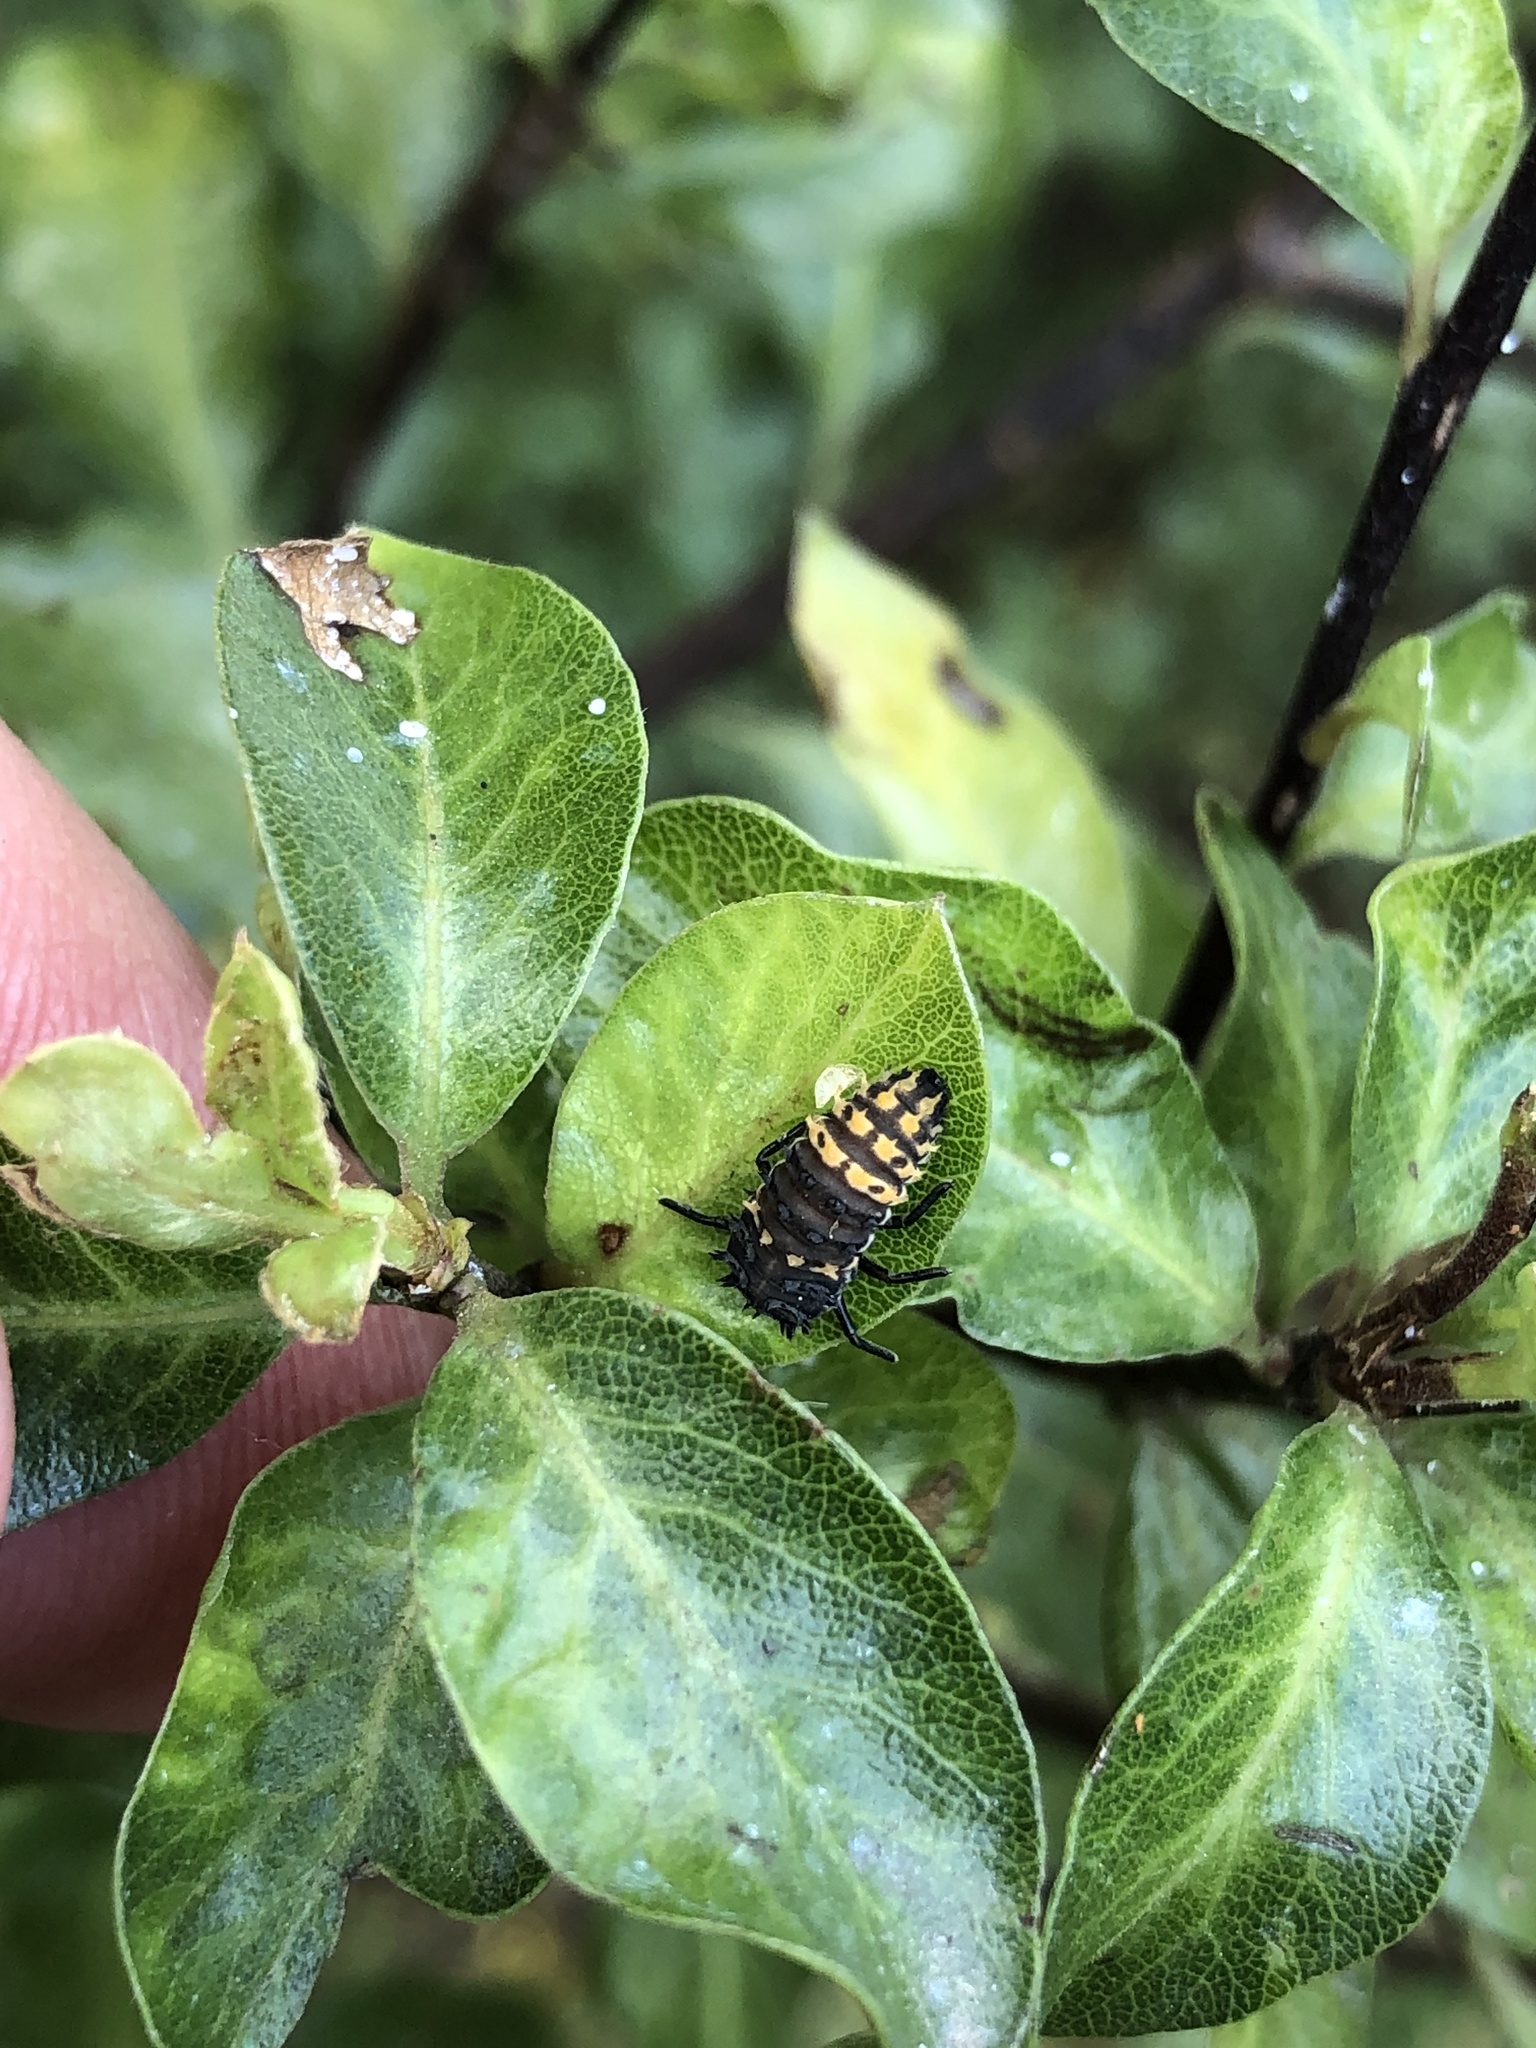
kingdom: Animalia
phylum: Arthropoda
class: Insecta
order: Coleoptera
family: Coccinellidae
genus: Harmonia
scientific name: Harmonia conformis
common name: Common spotted ladybird beetle
